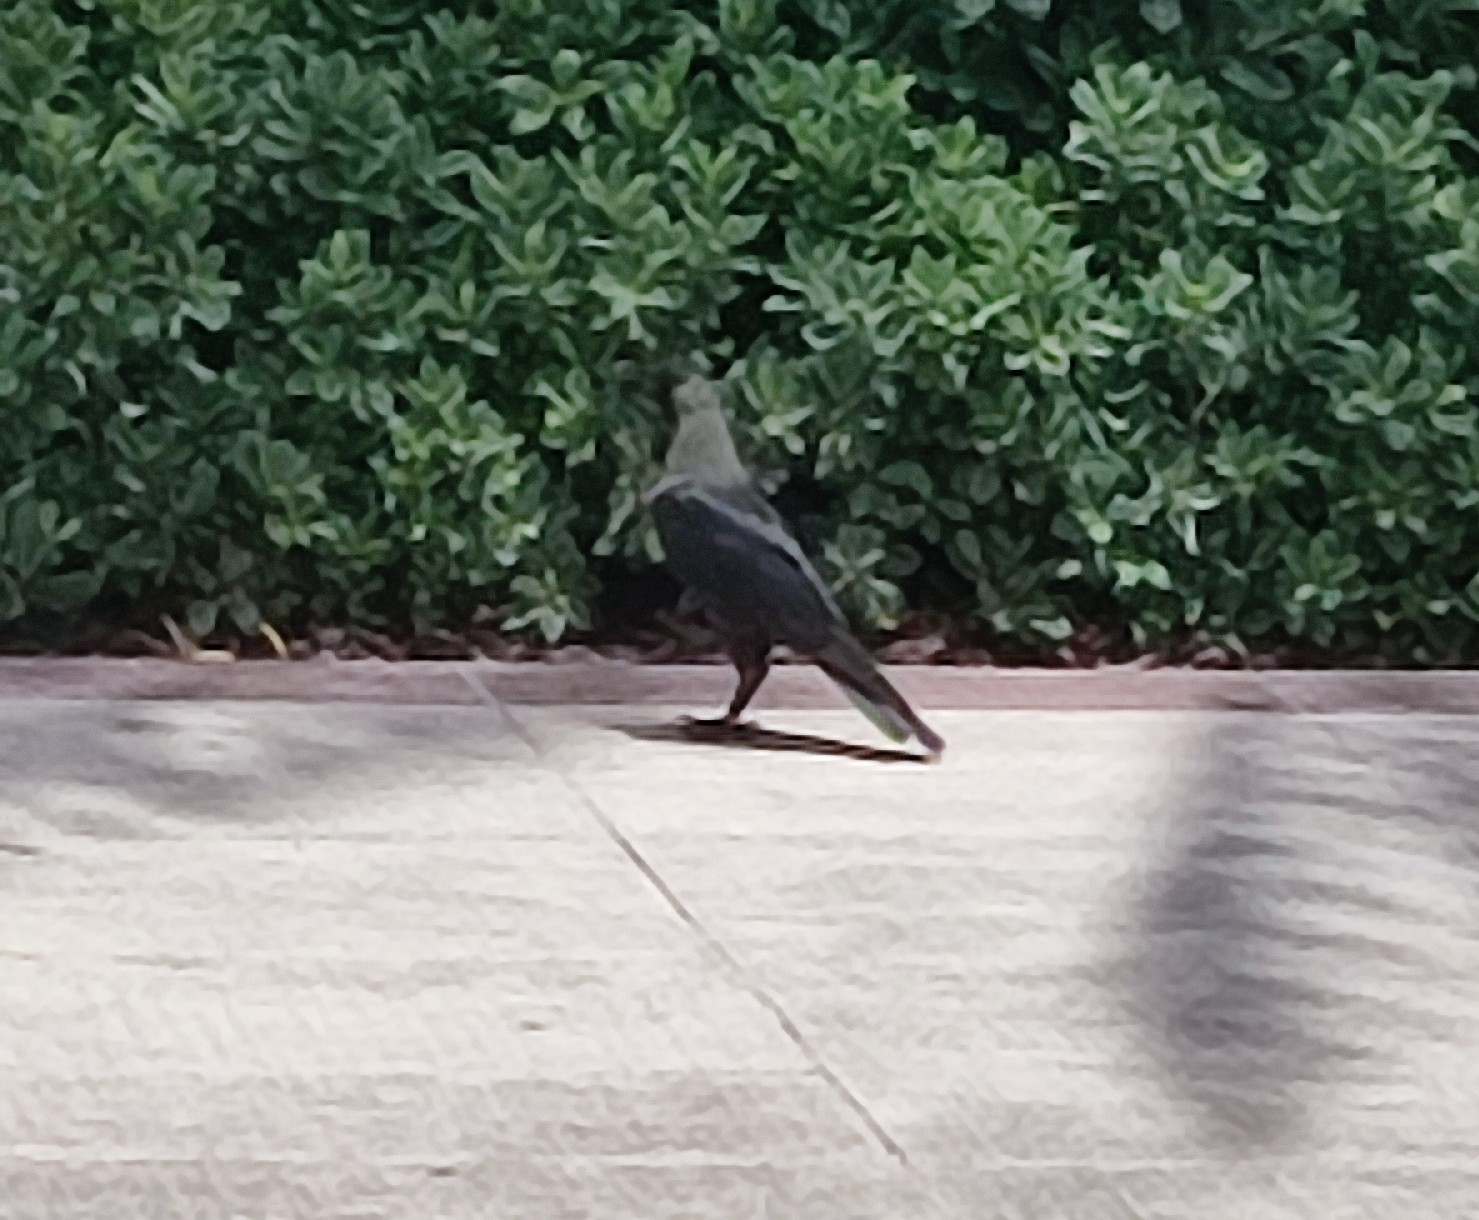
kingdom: Animalia
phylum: Chordata
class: Aves
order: Passeriformes
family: Corvidae
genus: Corvus
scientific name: Corvus splendens
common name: House crow
